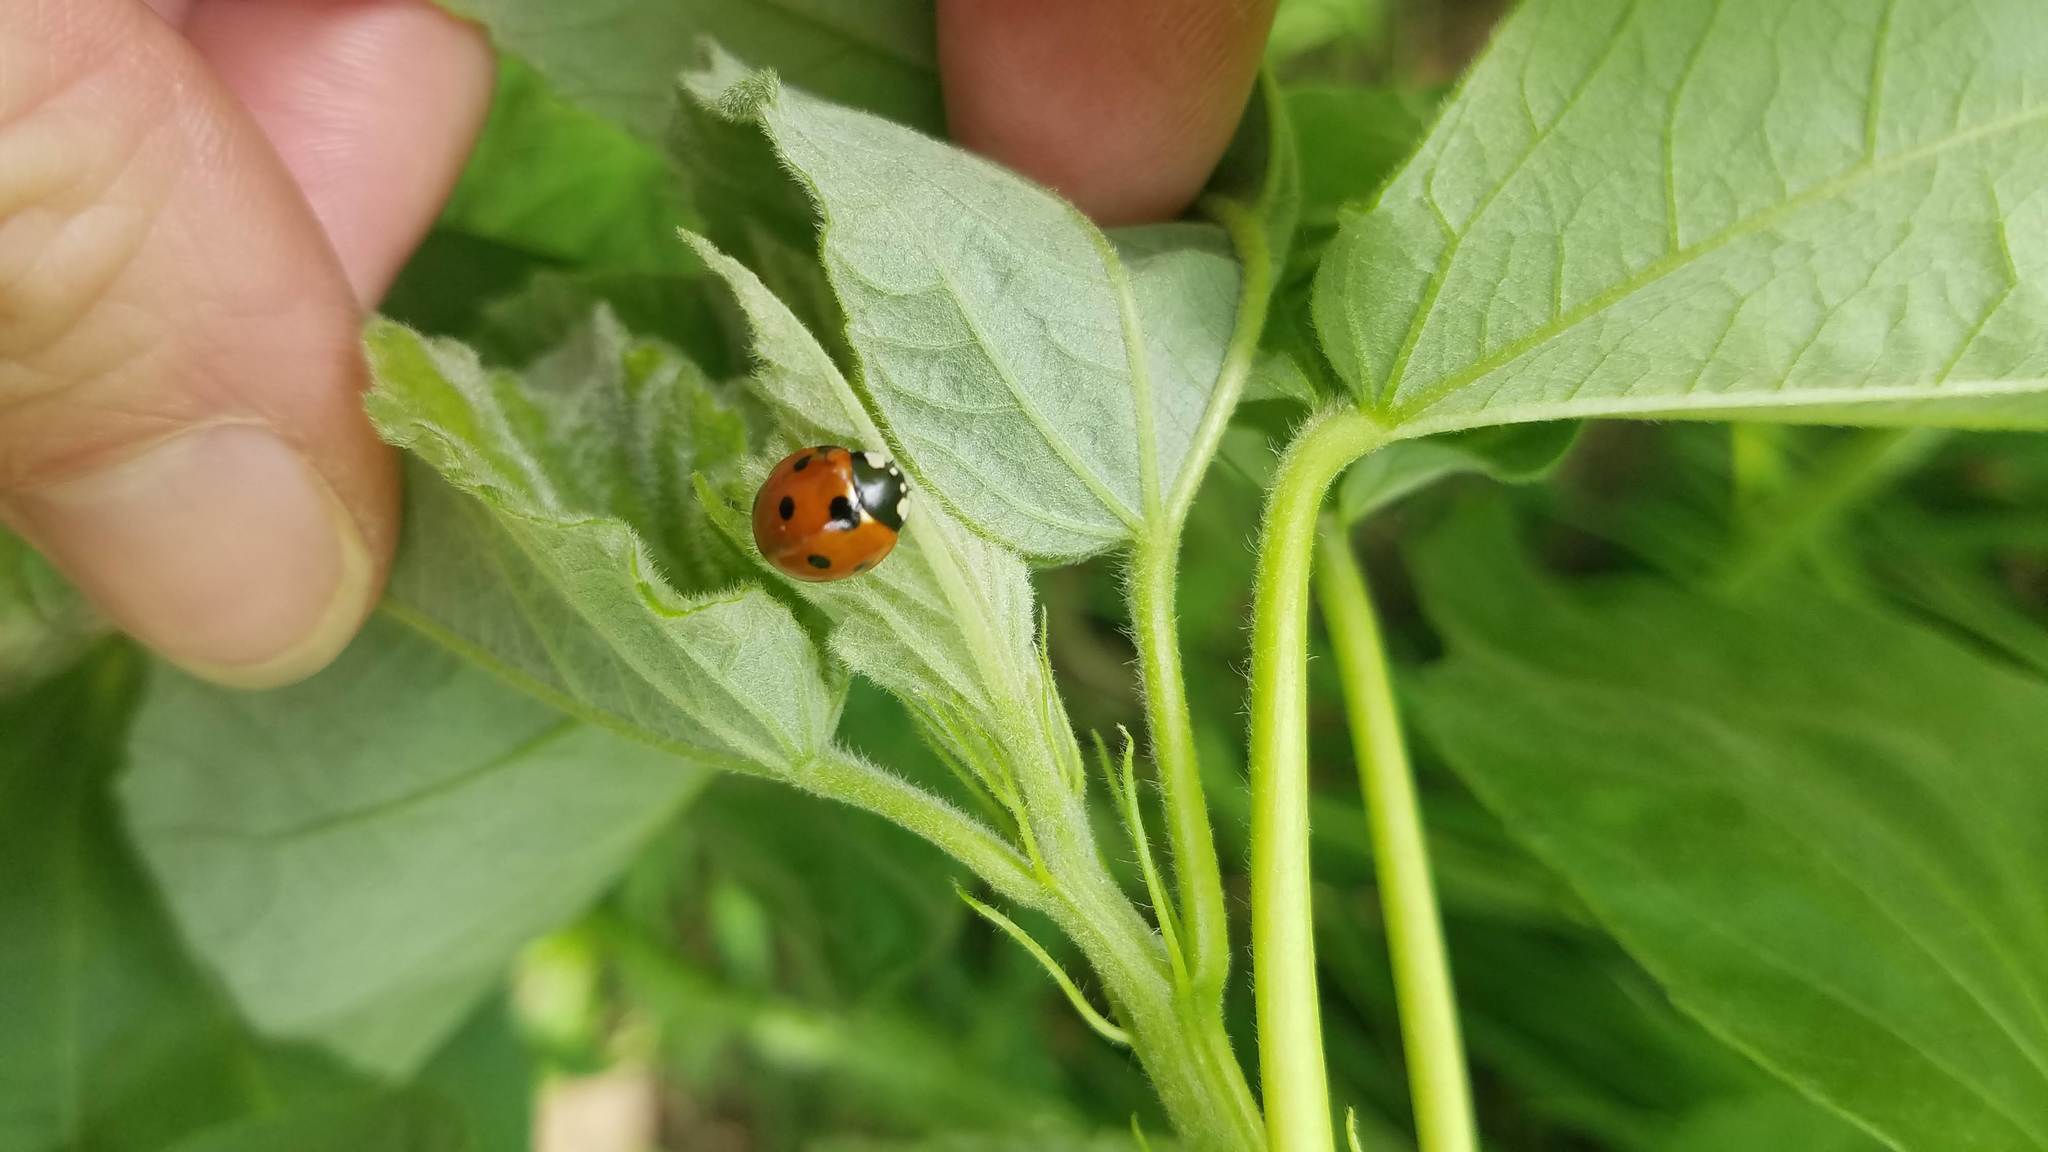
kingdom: Animalia
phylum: Arthropoda
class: Insecta
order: Coleoptera
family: Coccinellidae
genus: Coccinella
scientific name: Coccinella septempunctata
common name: Sevenspotted lady beetle
